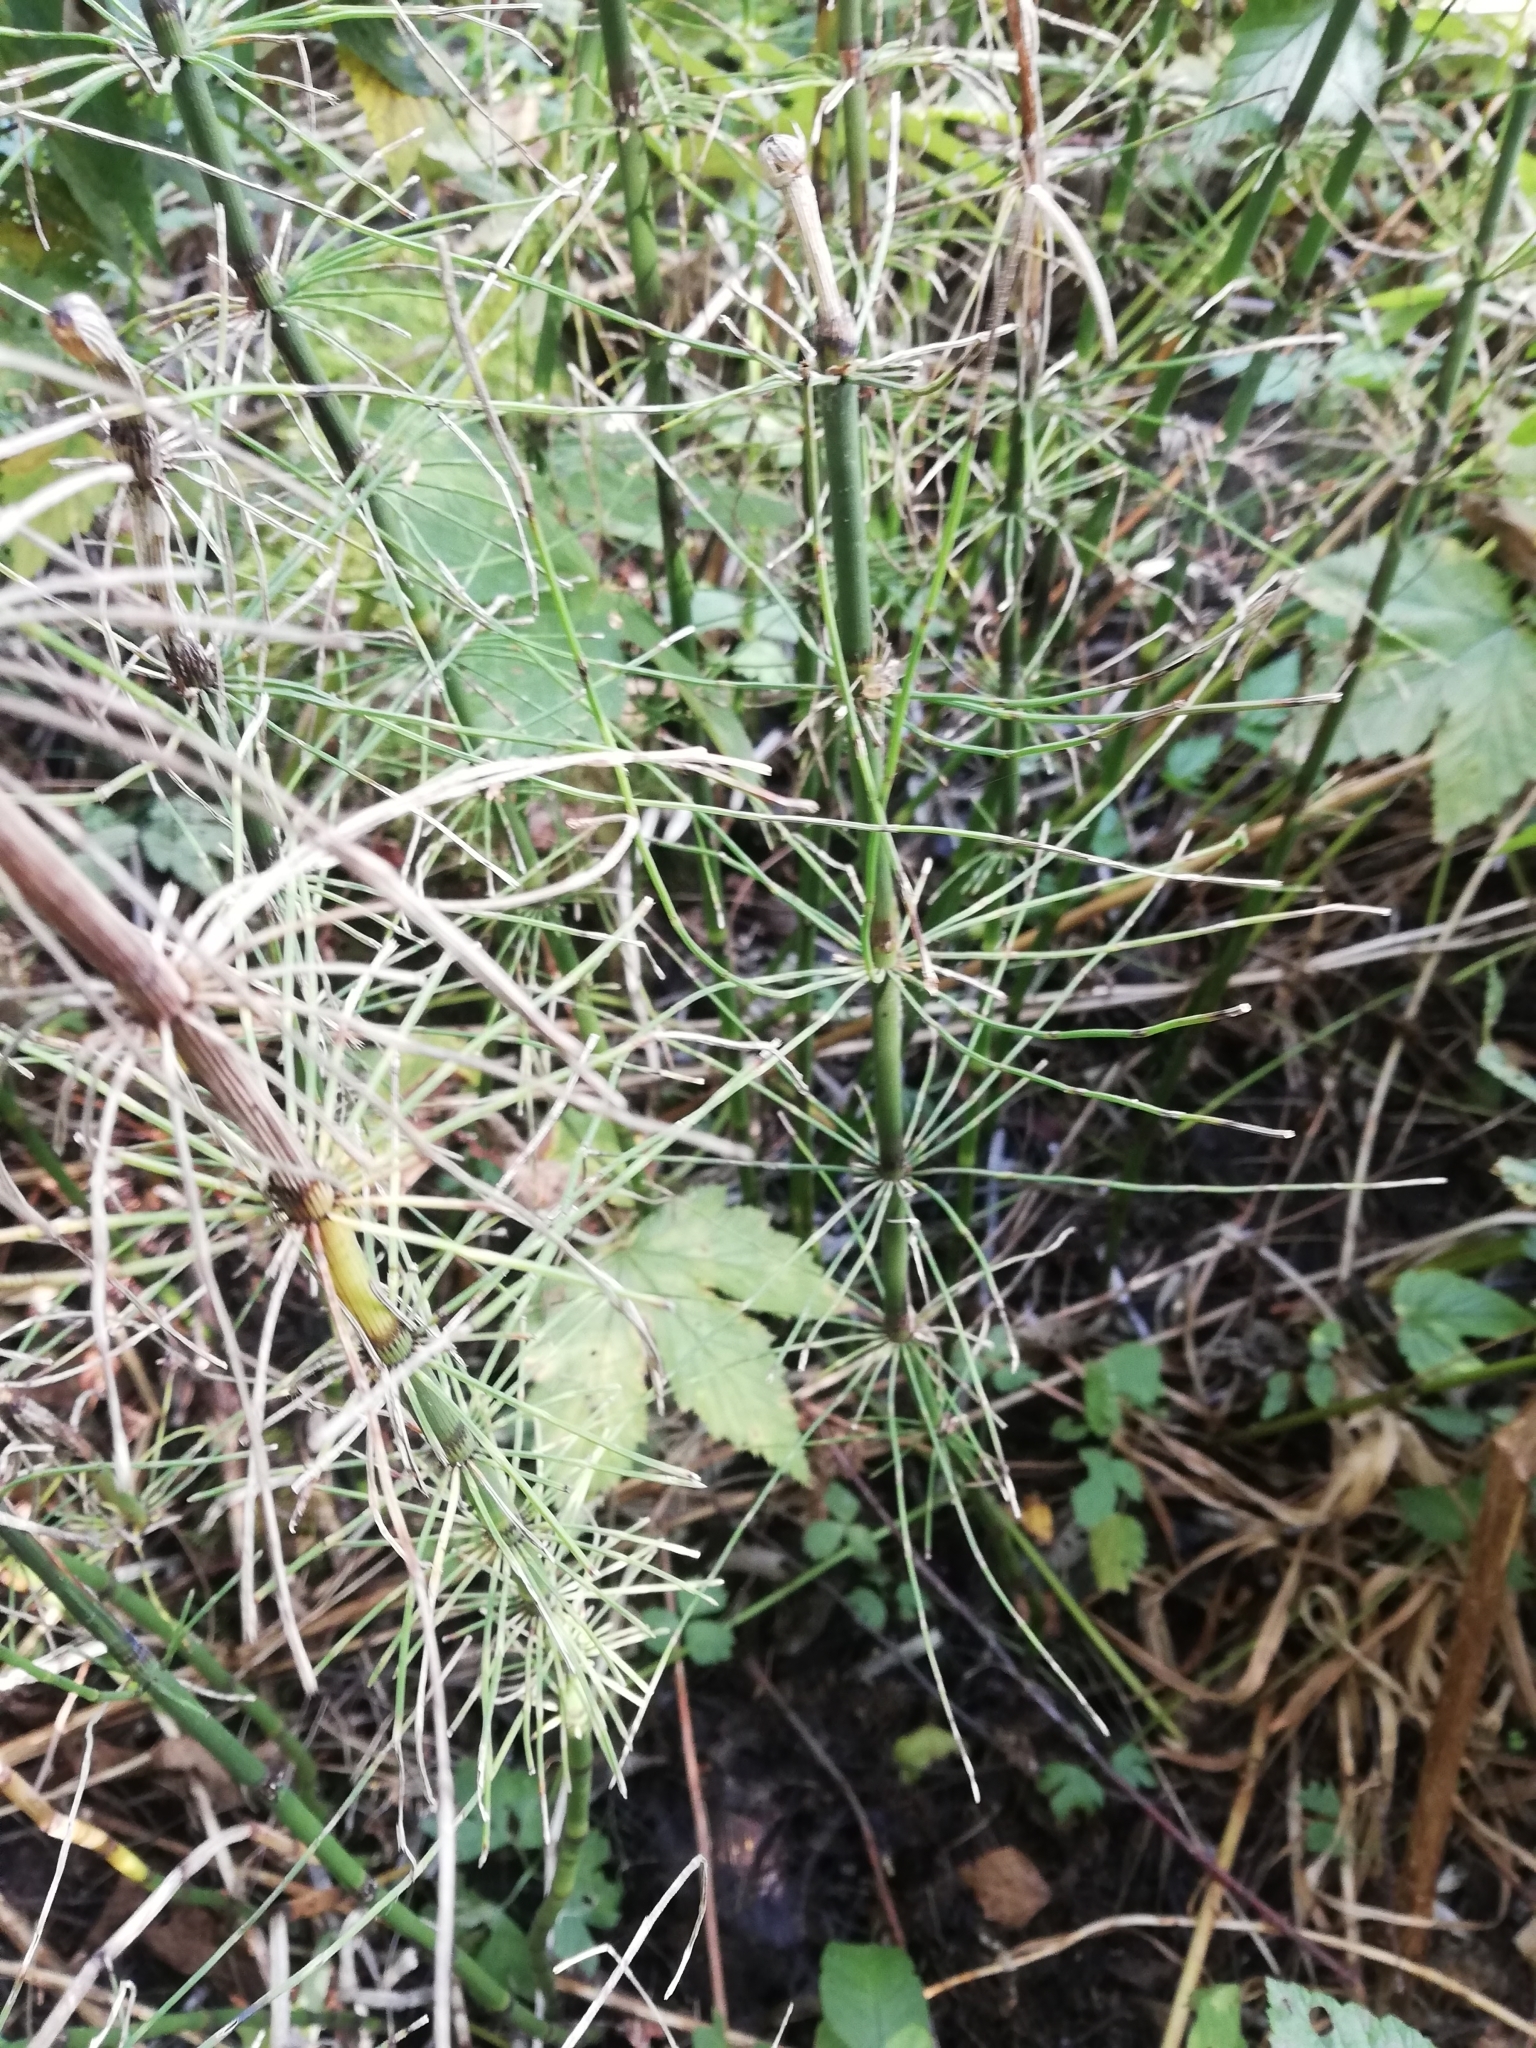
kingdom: Plantae
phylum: Tracheophyta
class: Polypodiopsida
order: Equisetales
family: Equisetaceae
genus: Equisetum
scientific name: Equisetum fluviatile
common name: Water horsetail
